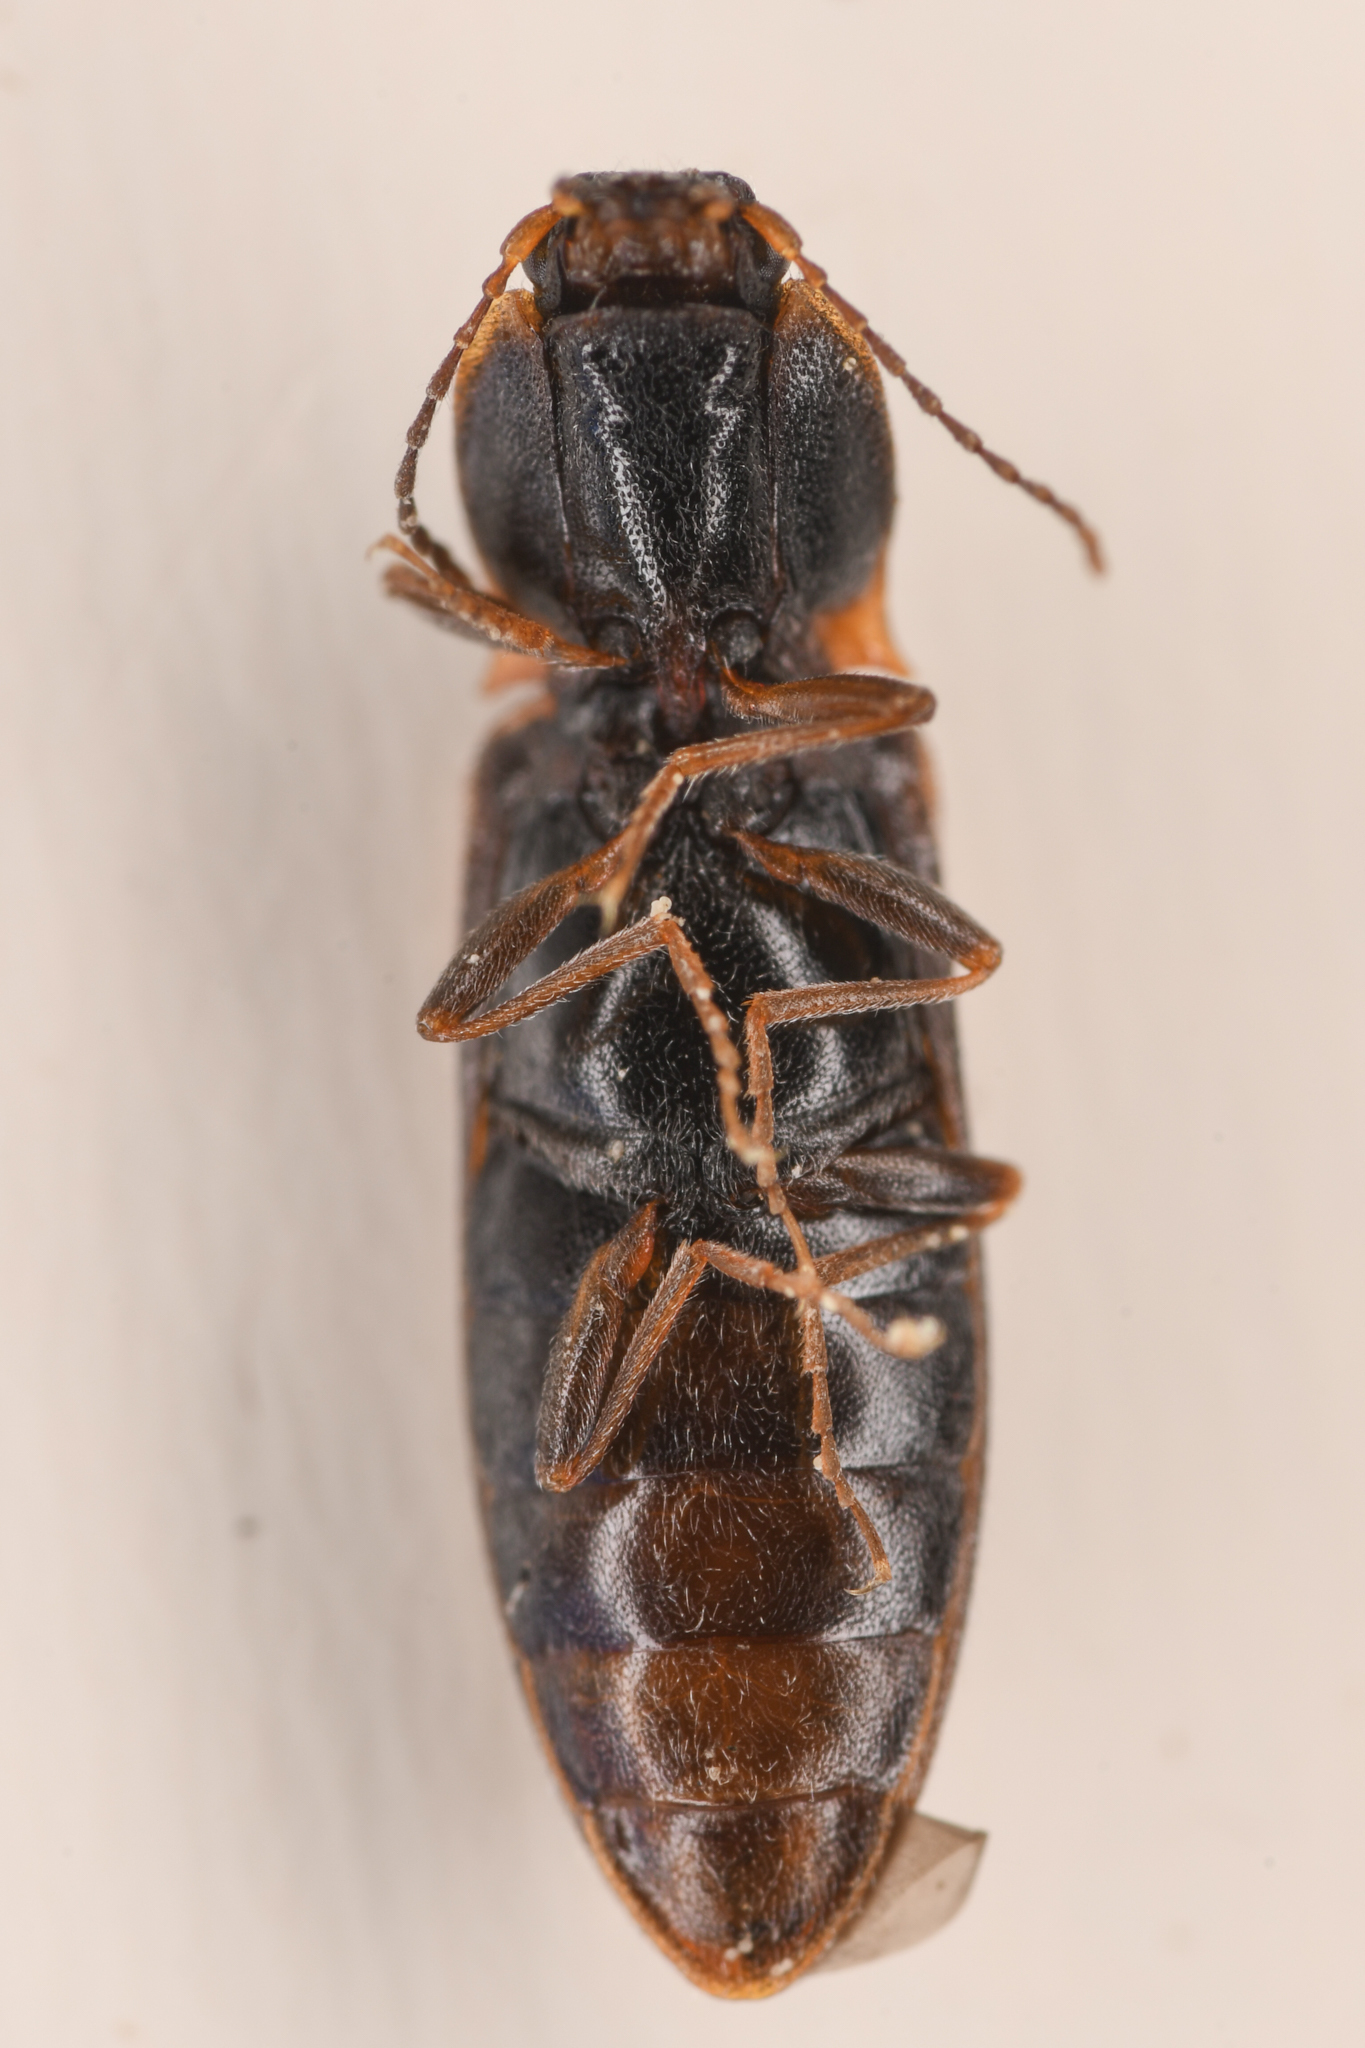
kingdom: Animalia
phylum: Arthropoda
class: Insecta
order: Coleoptera
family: Elateridae
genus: Ctenicera
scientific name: Ctenicera angularis
